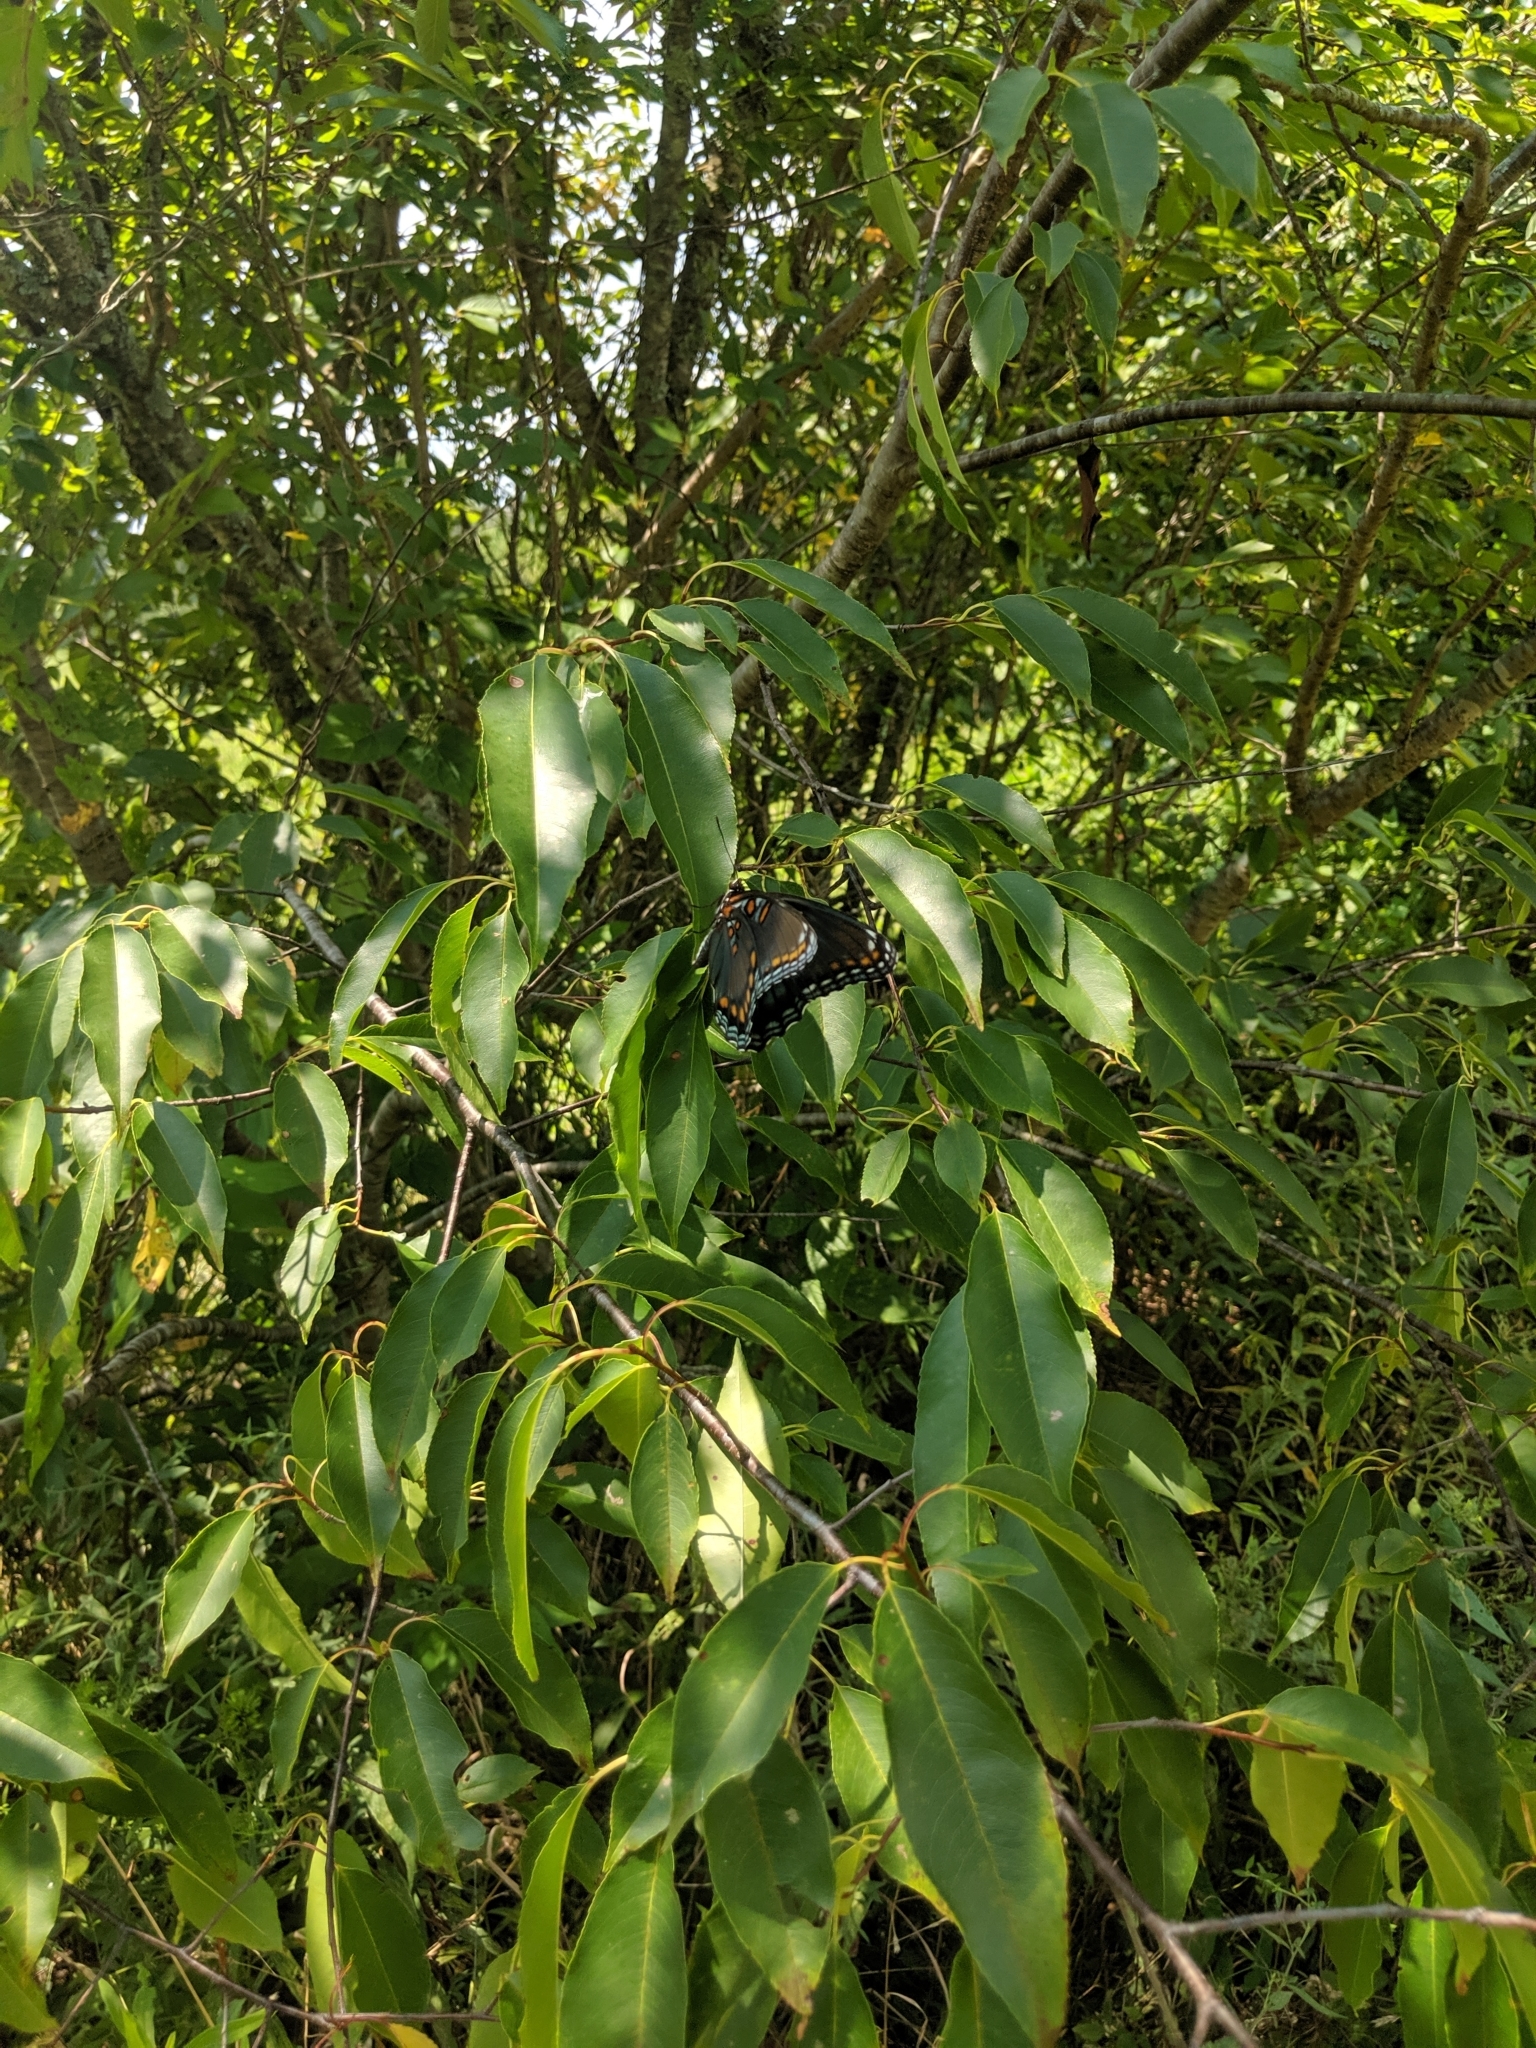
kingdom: Animalia
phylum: Arthropoda
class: Insecta
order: Lepidoptera
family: Nymphalidae
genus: Limenitis
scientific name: Limenitis astyanax
